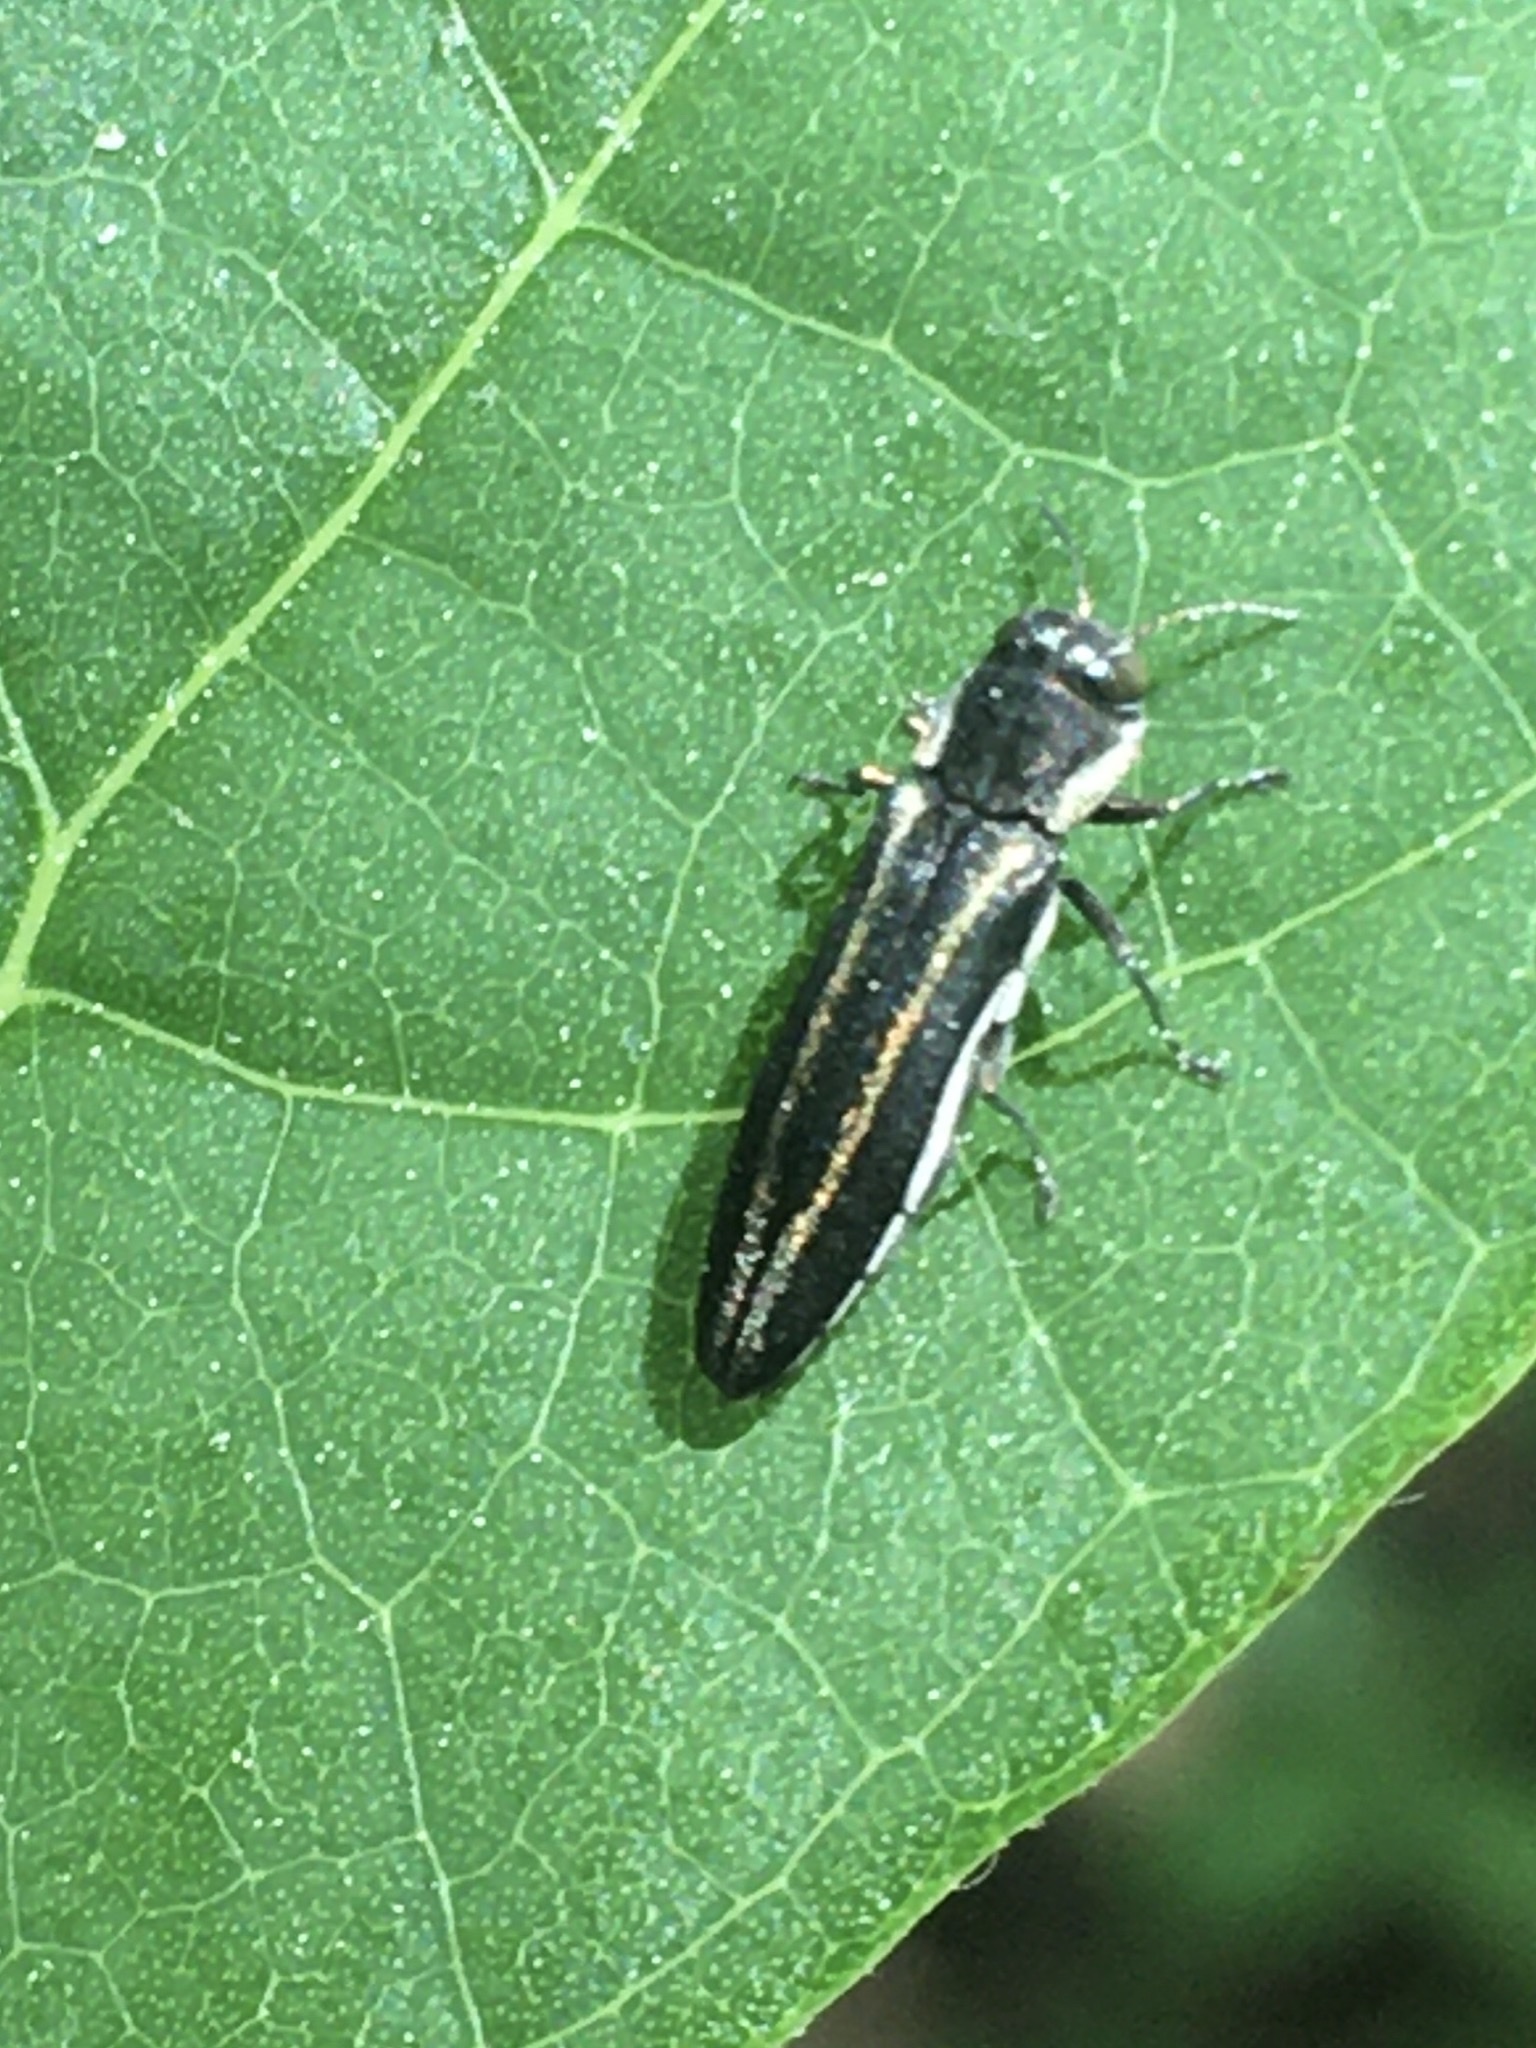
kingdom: Animalia
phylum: Arthropoda
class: Insecta
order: Coleoptera
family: Buprestidae
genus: Agrilus
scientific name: Agrilus bilineatus
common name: Two-lined chestnut borer
